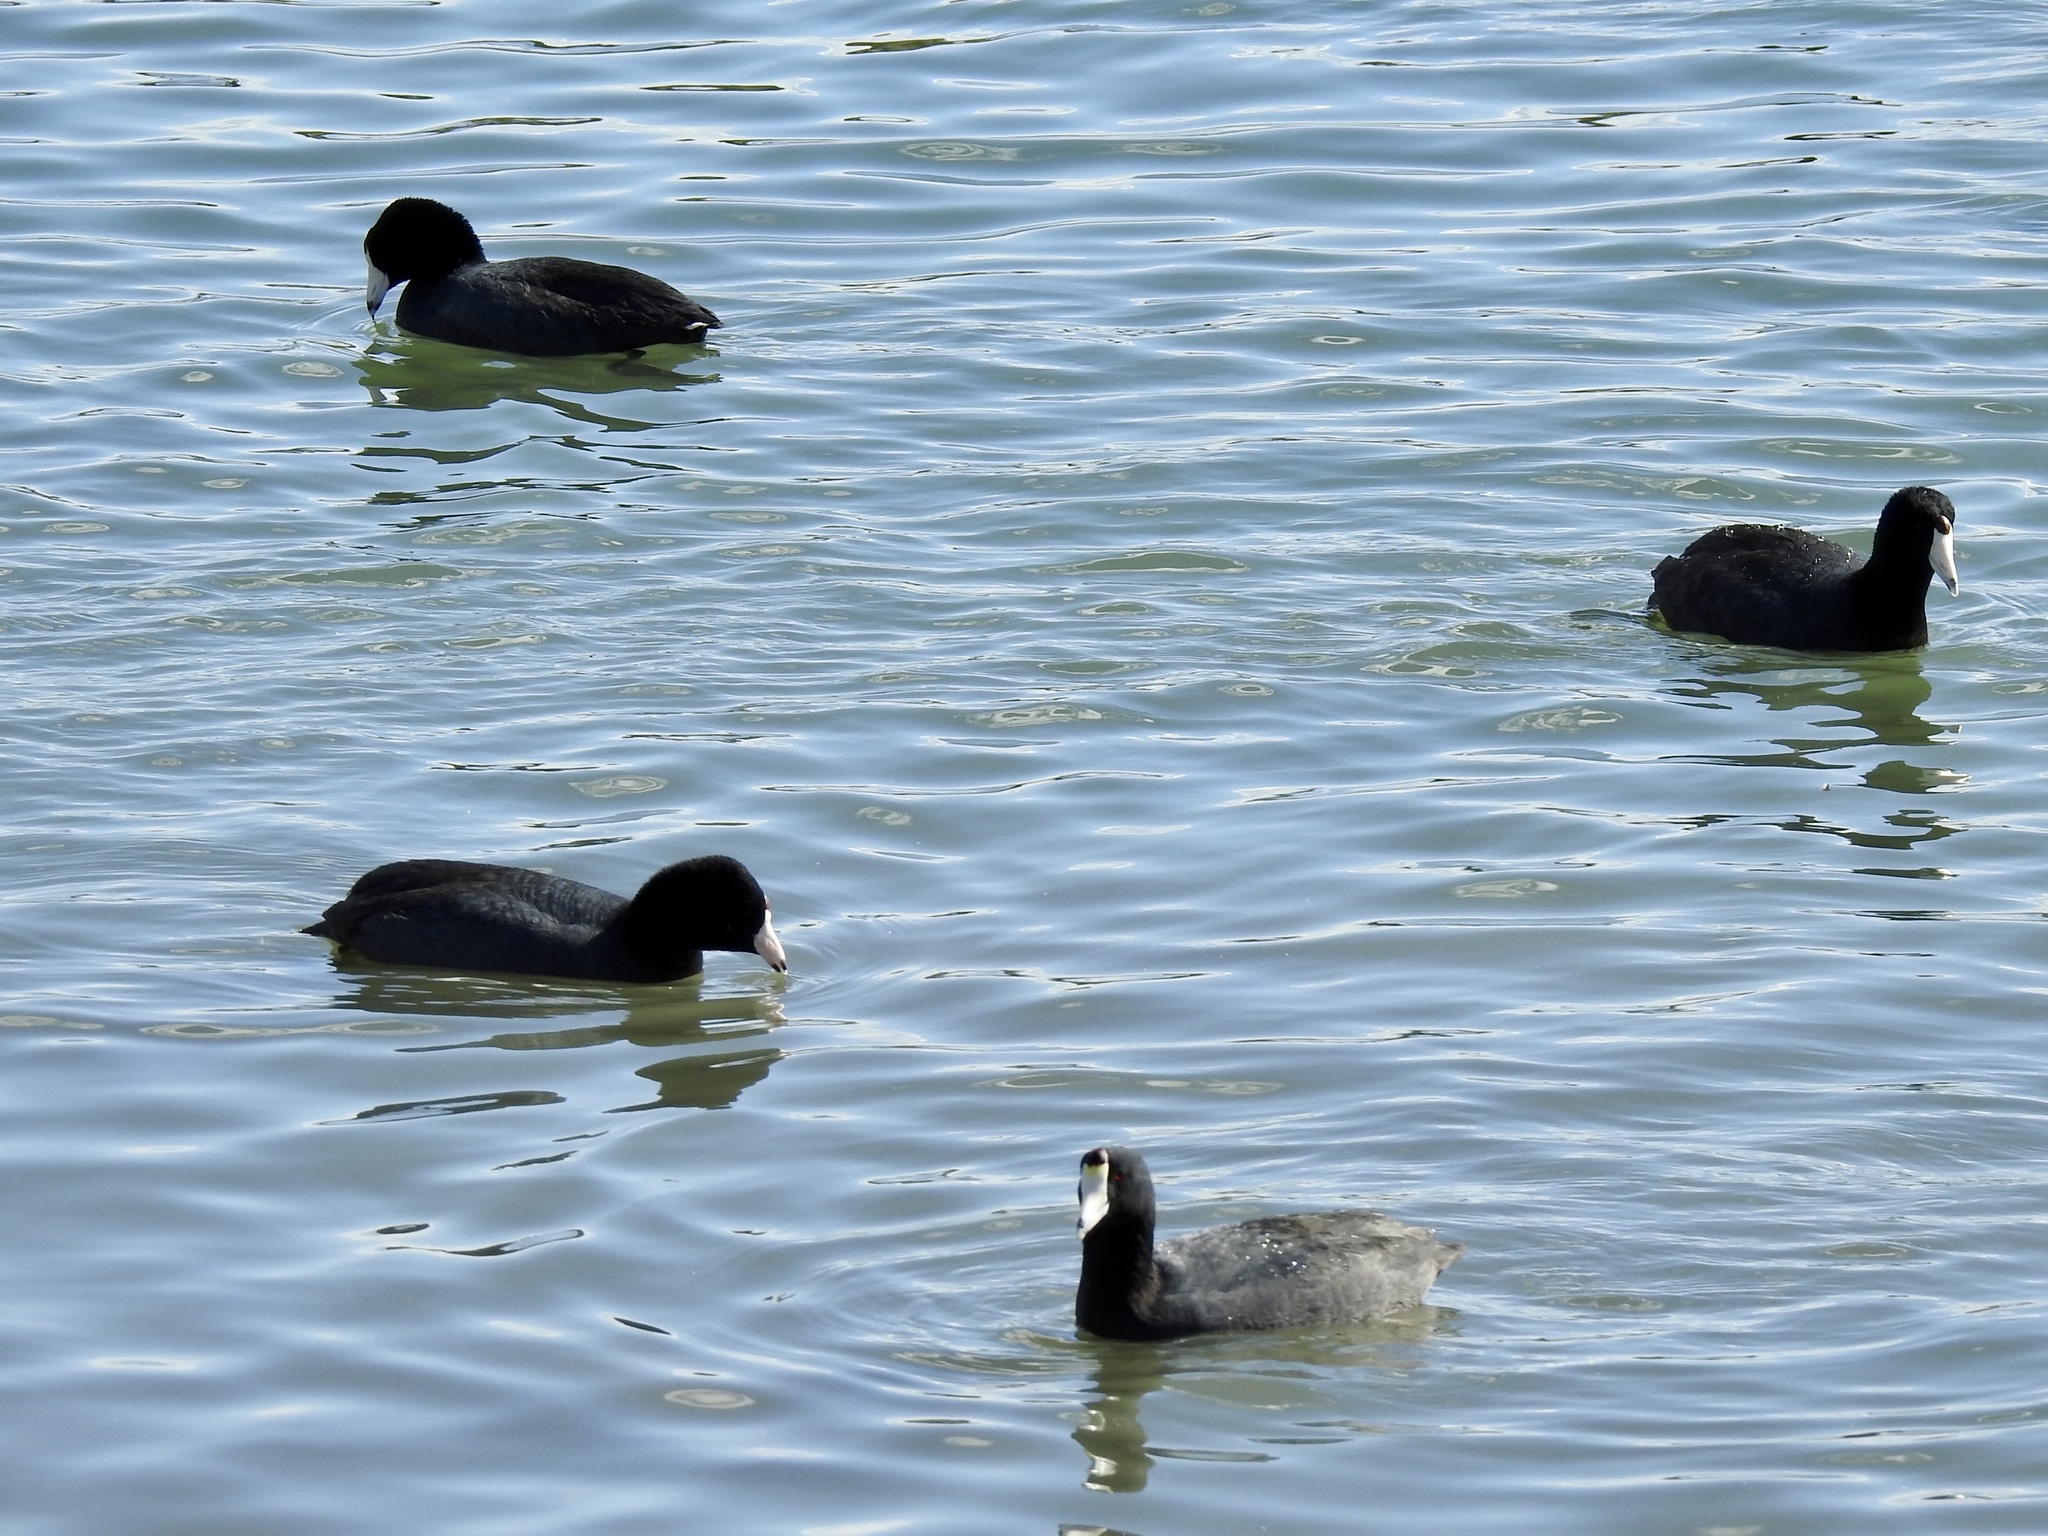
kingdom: Animalia
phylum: Chordata
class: Aves
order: Gruiformes
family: Rallidae
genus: Fulica
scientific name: Fulica americana
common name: American coot
